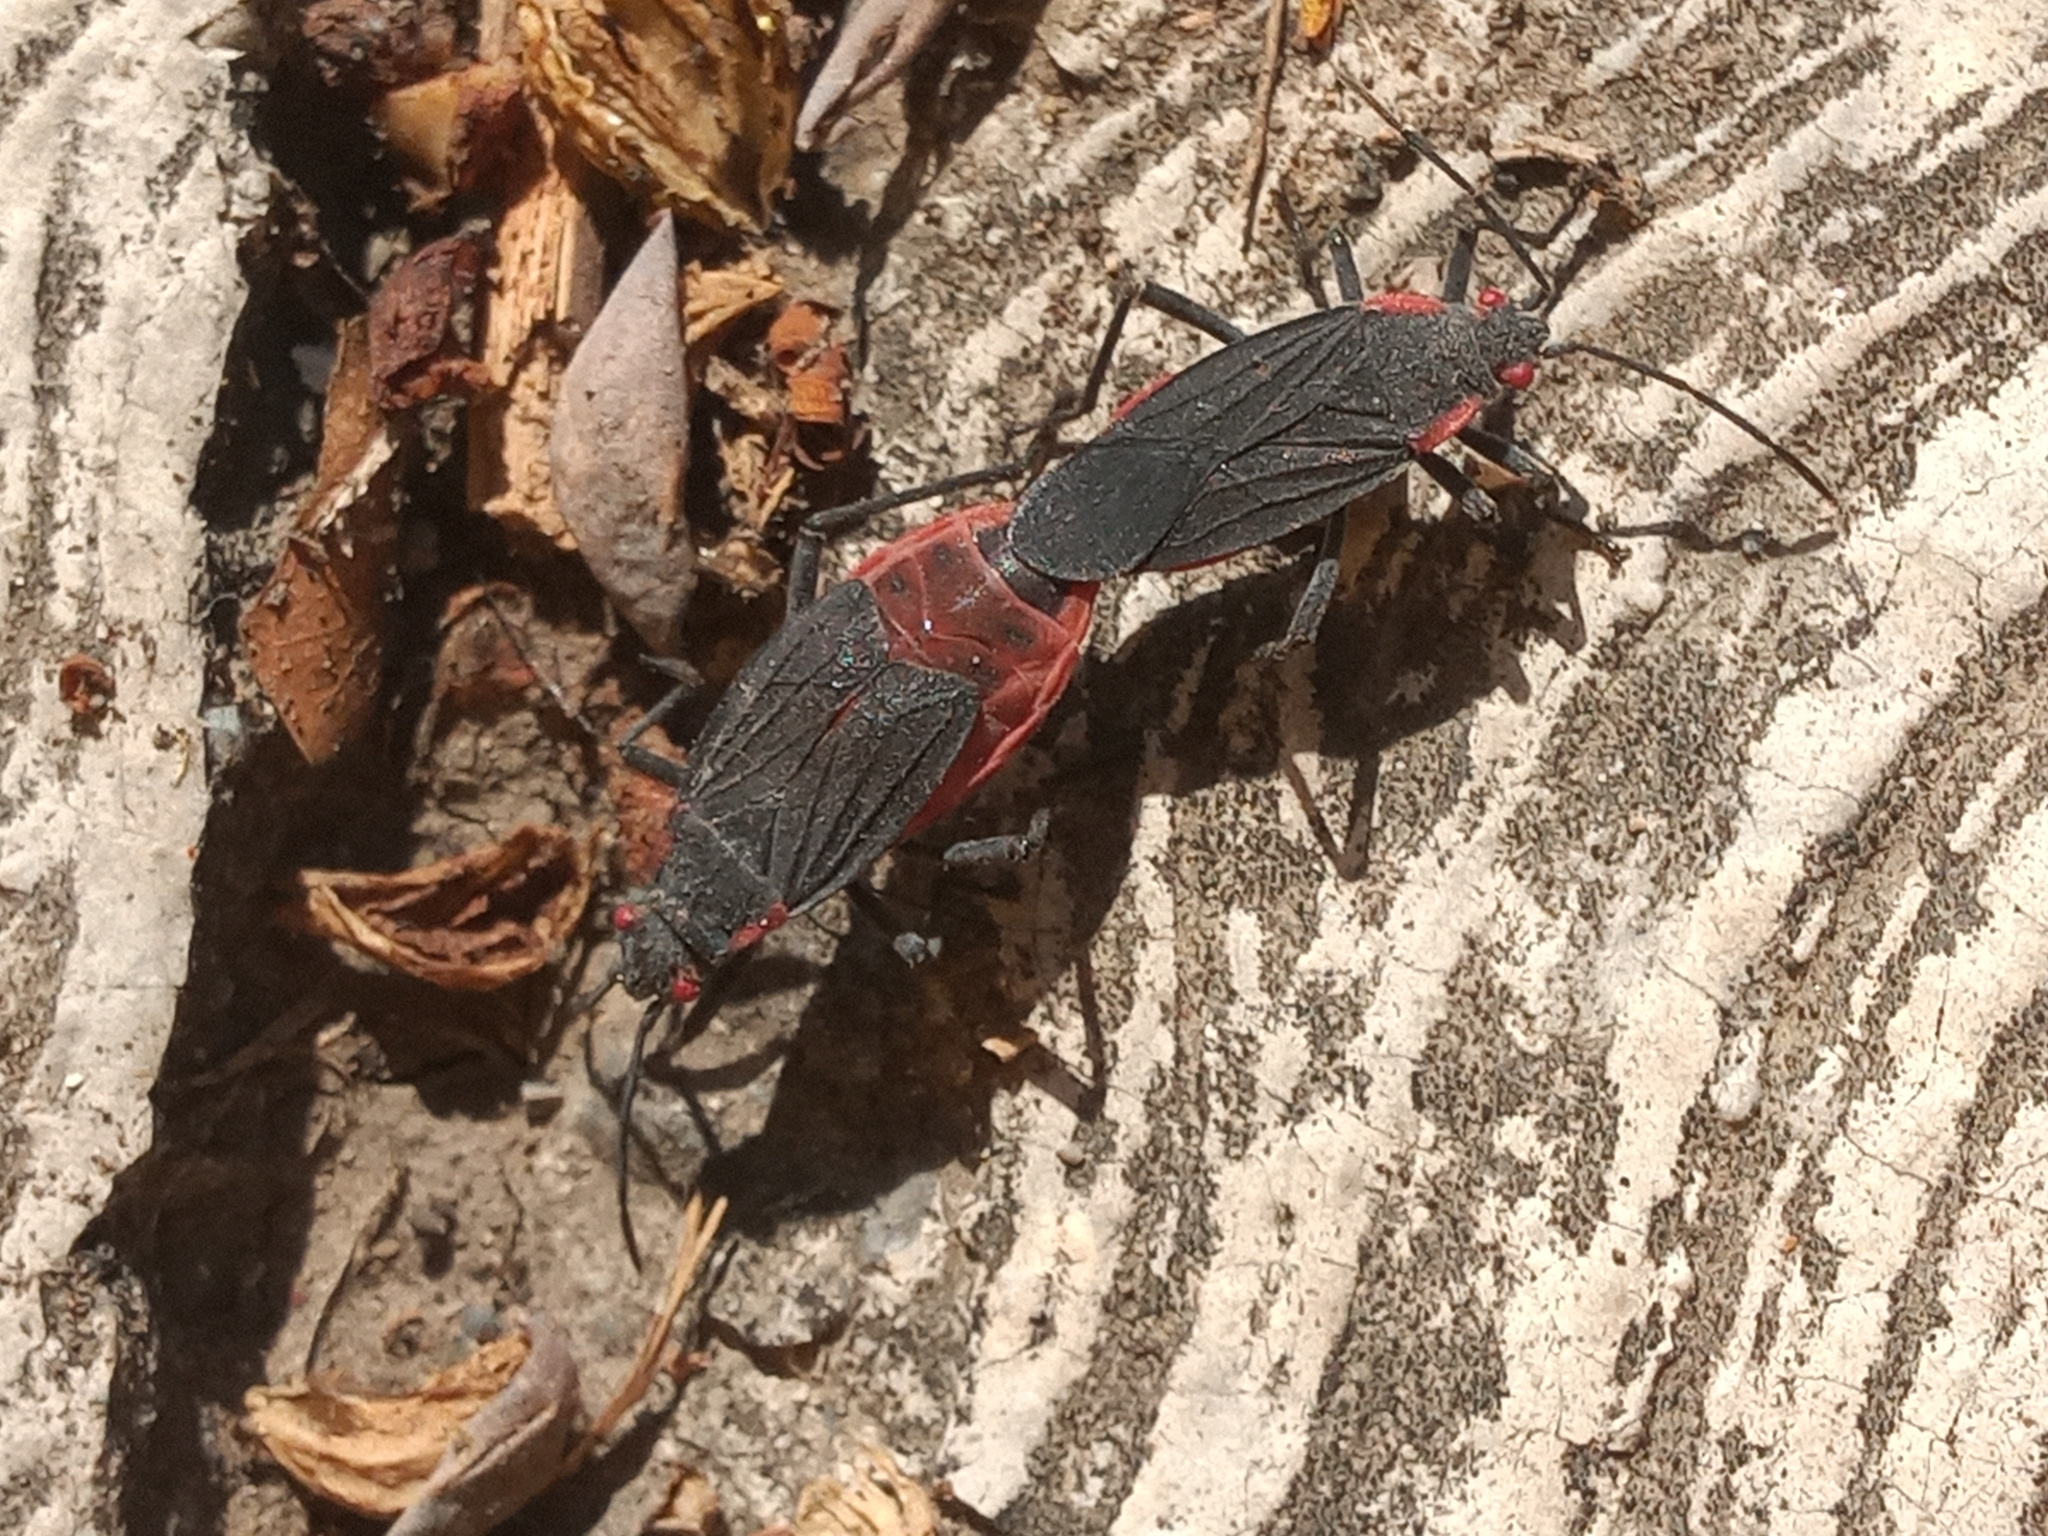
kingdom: Animalia
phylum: Arthropoda
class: Insecta
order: Hemiptera
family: Rhopalidae
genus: Jadera
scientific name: Jadera haematoloma
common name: Red-shouldered bug
